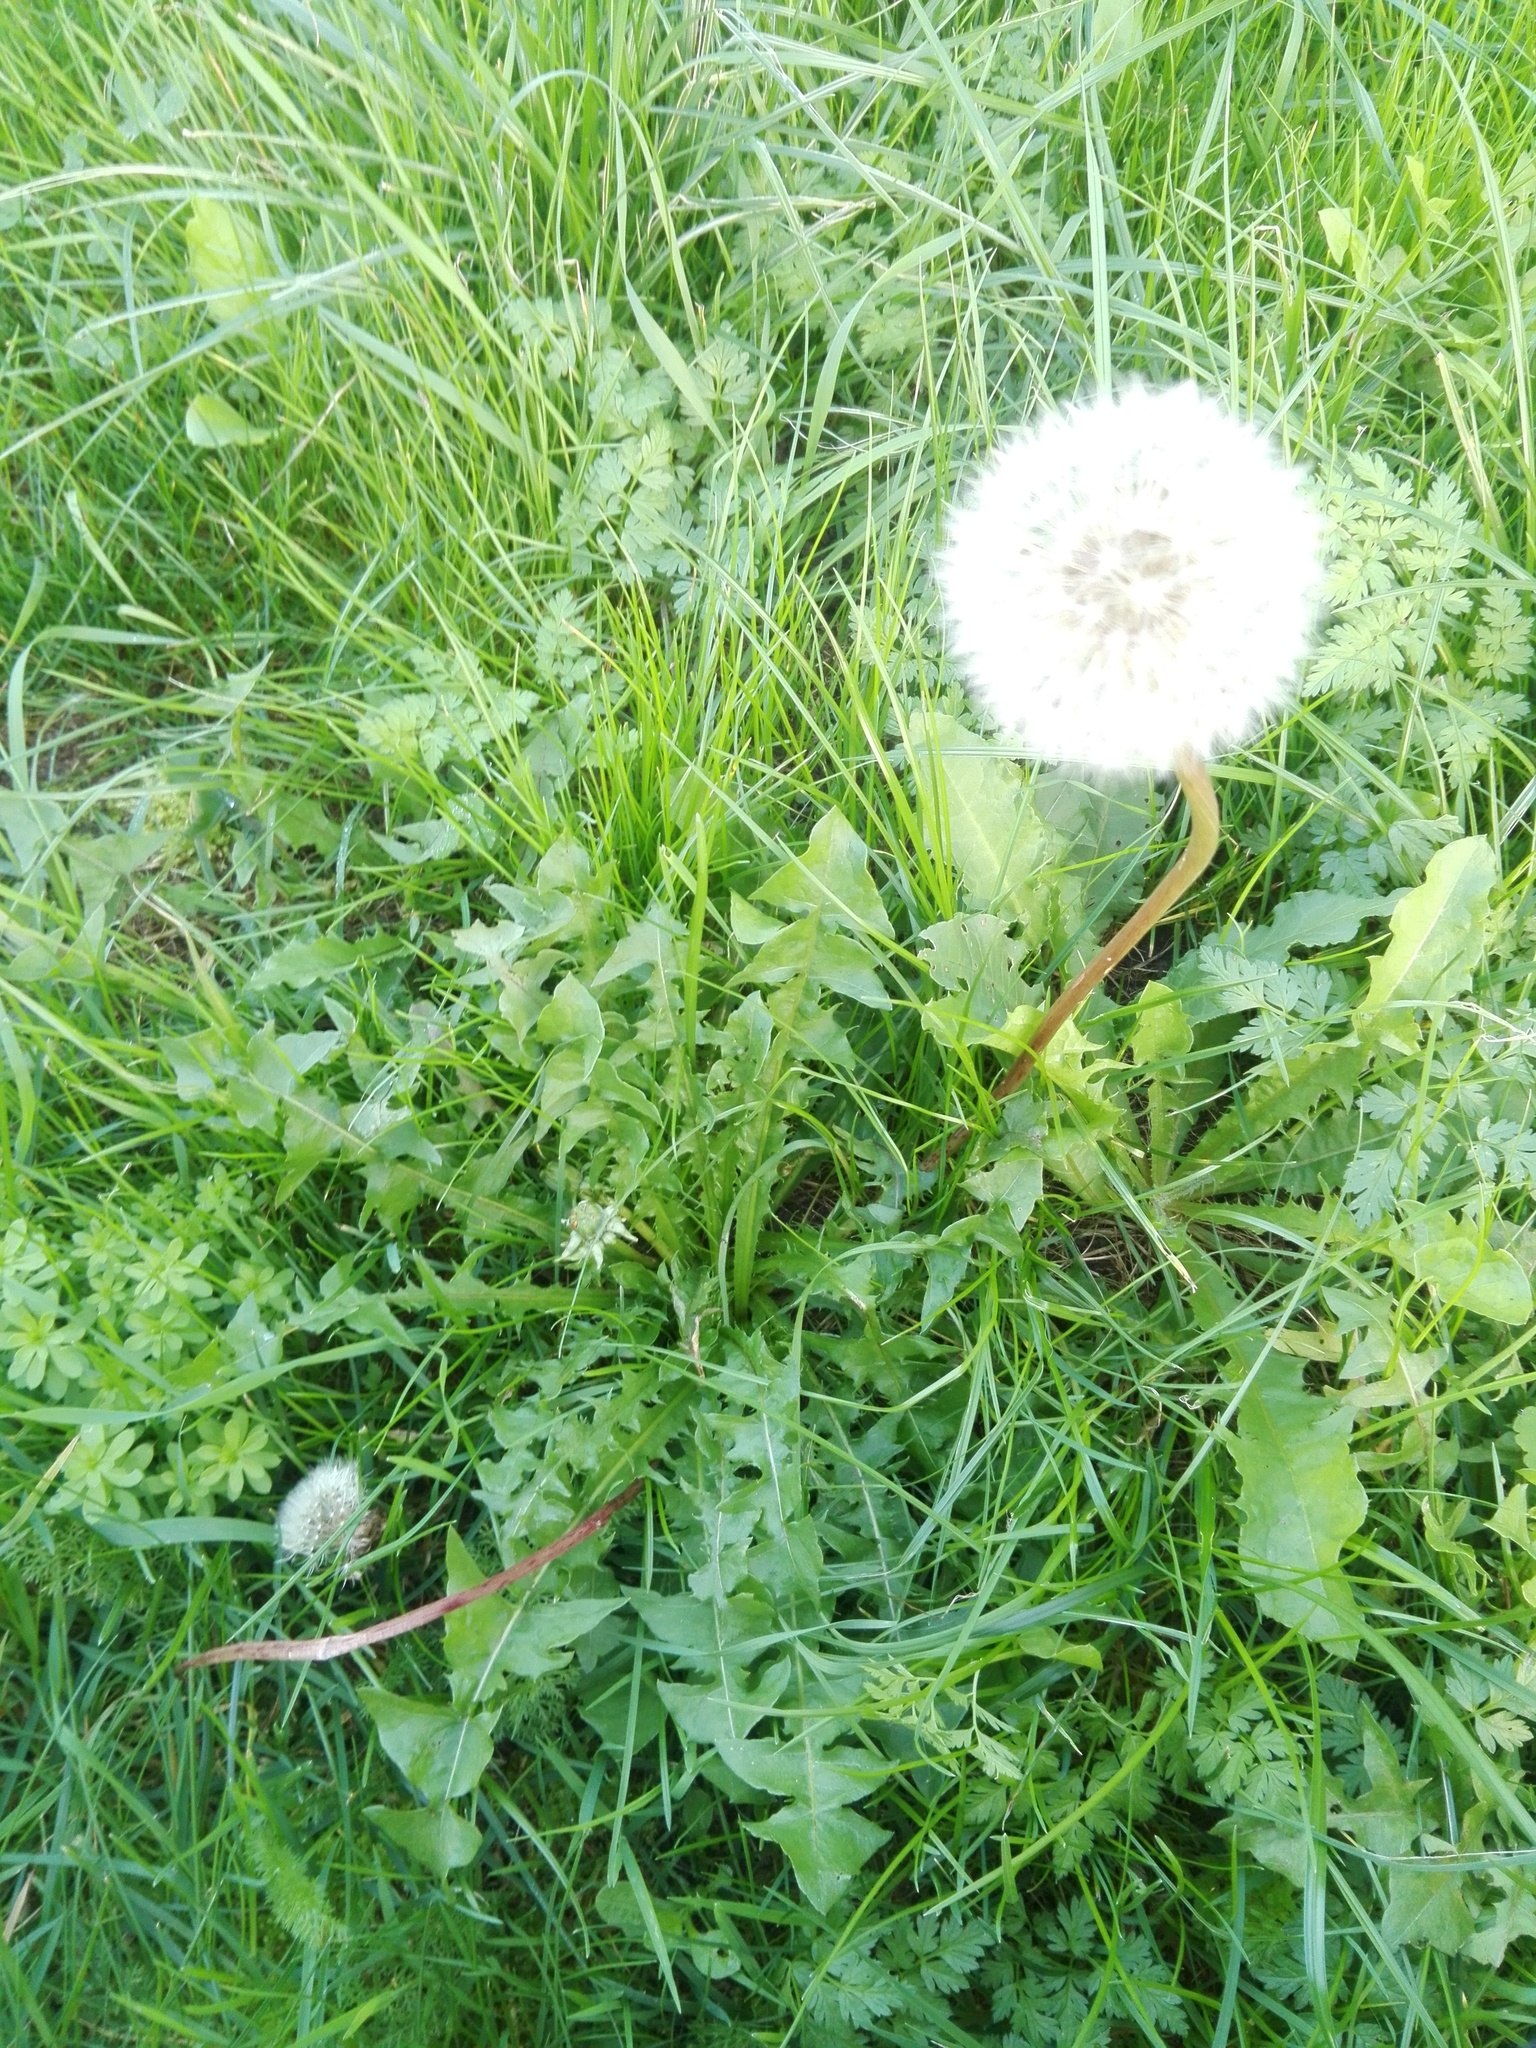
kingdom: Plantae
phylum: Tracheophyta
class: Magnoliopsida
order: Asterales
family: Asteraceae
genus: Taraxacum
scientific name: Taraxacum officinale
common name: Common dandelion
